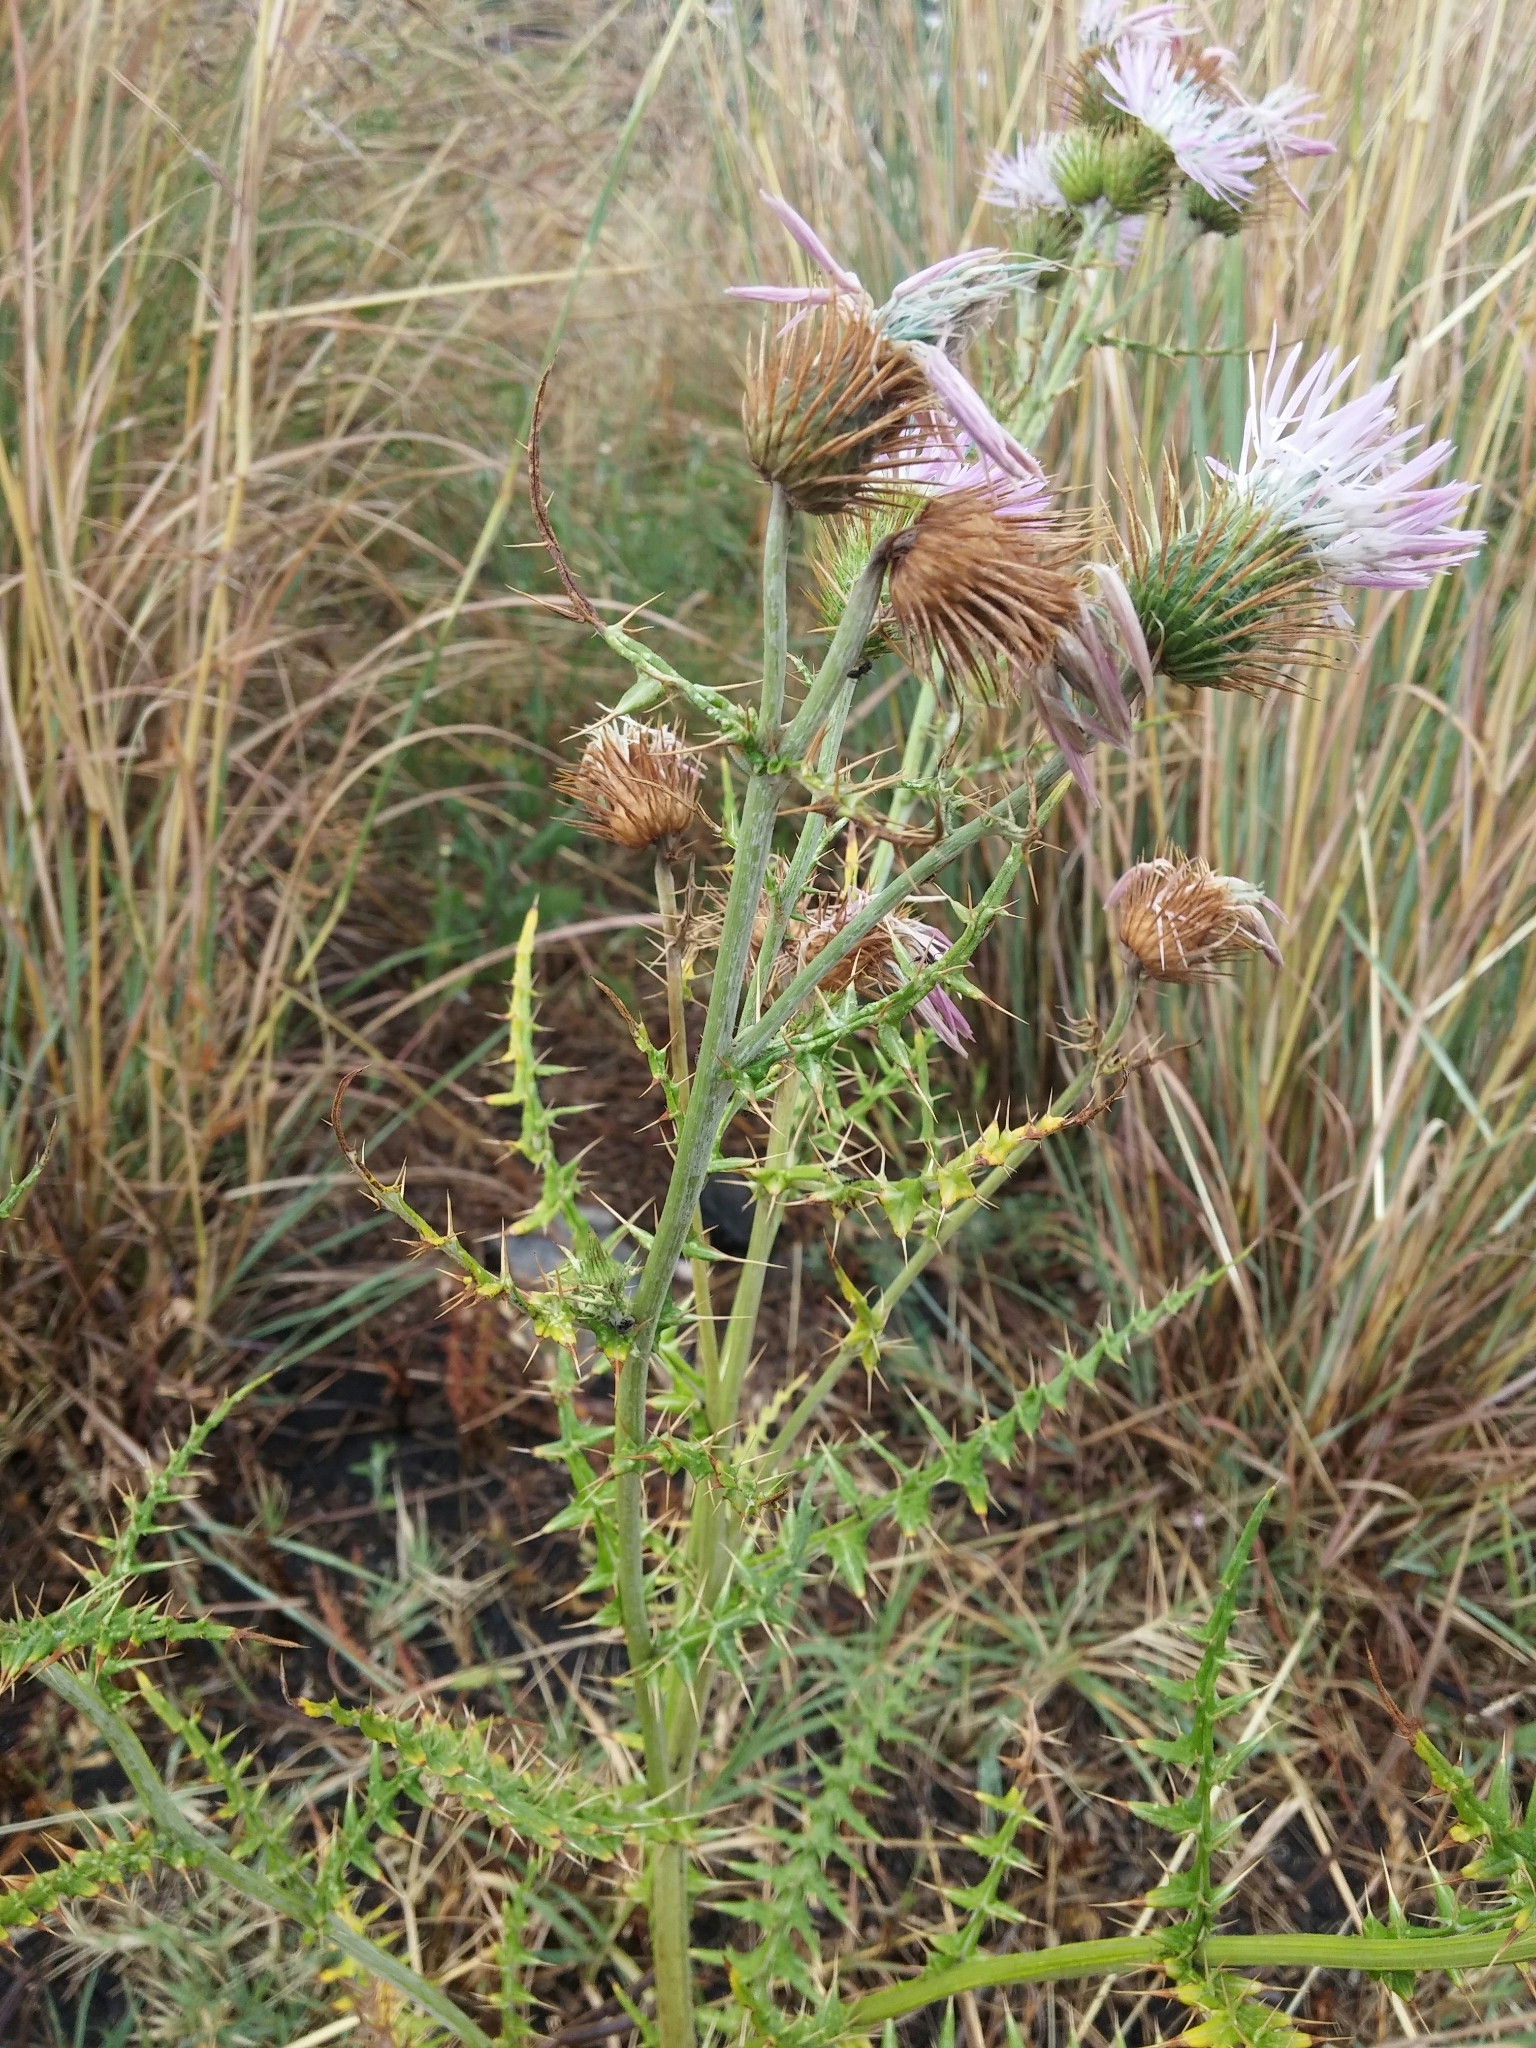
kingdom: Plantae
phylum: Tracheophyta
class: Magnoliopsida
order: Asterales
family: Asteraceae
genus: Galactites
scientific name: Galactites tomentosa
